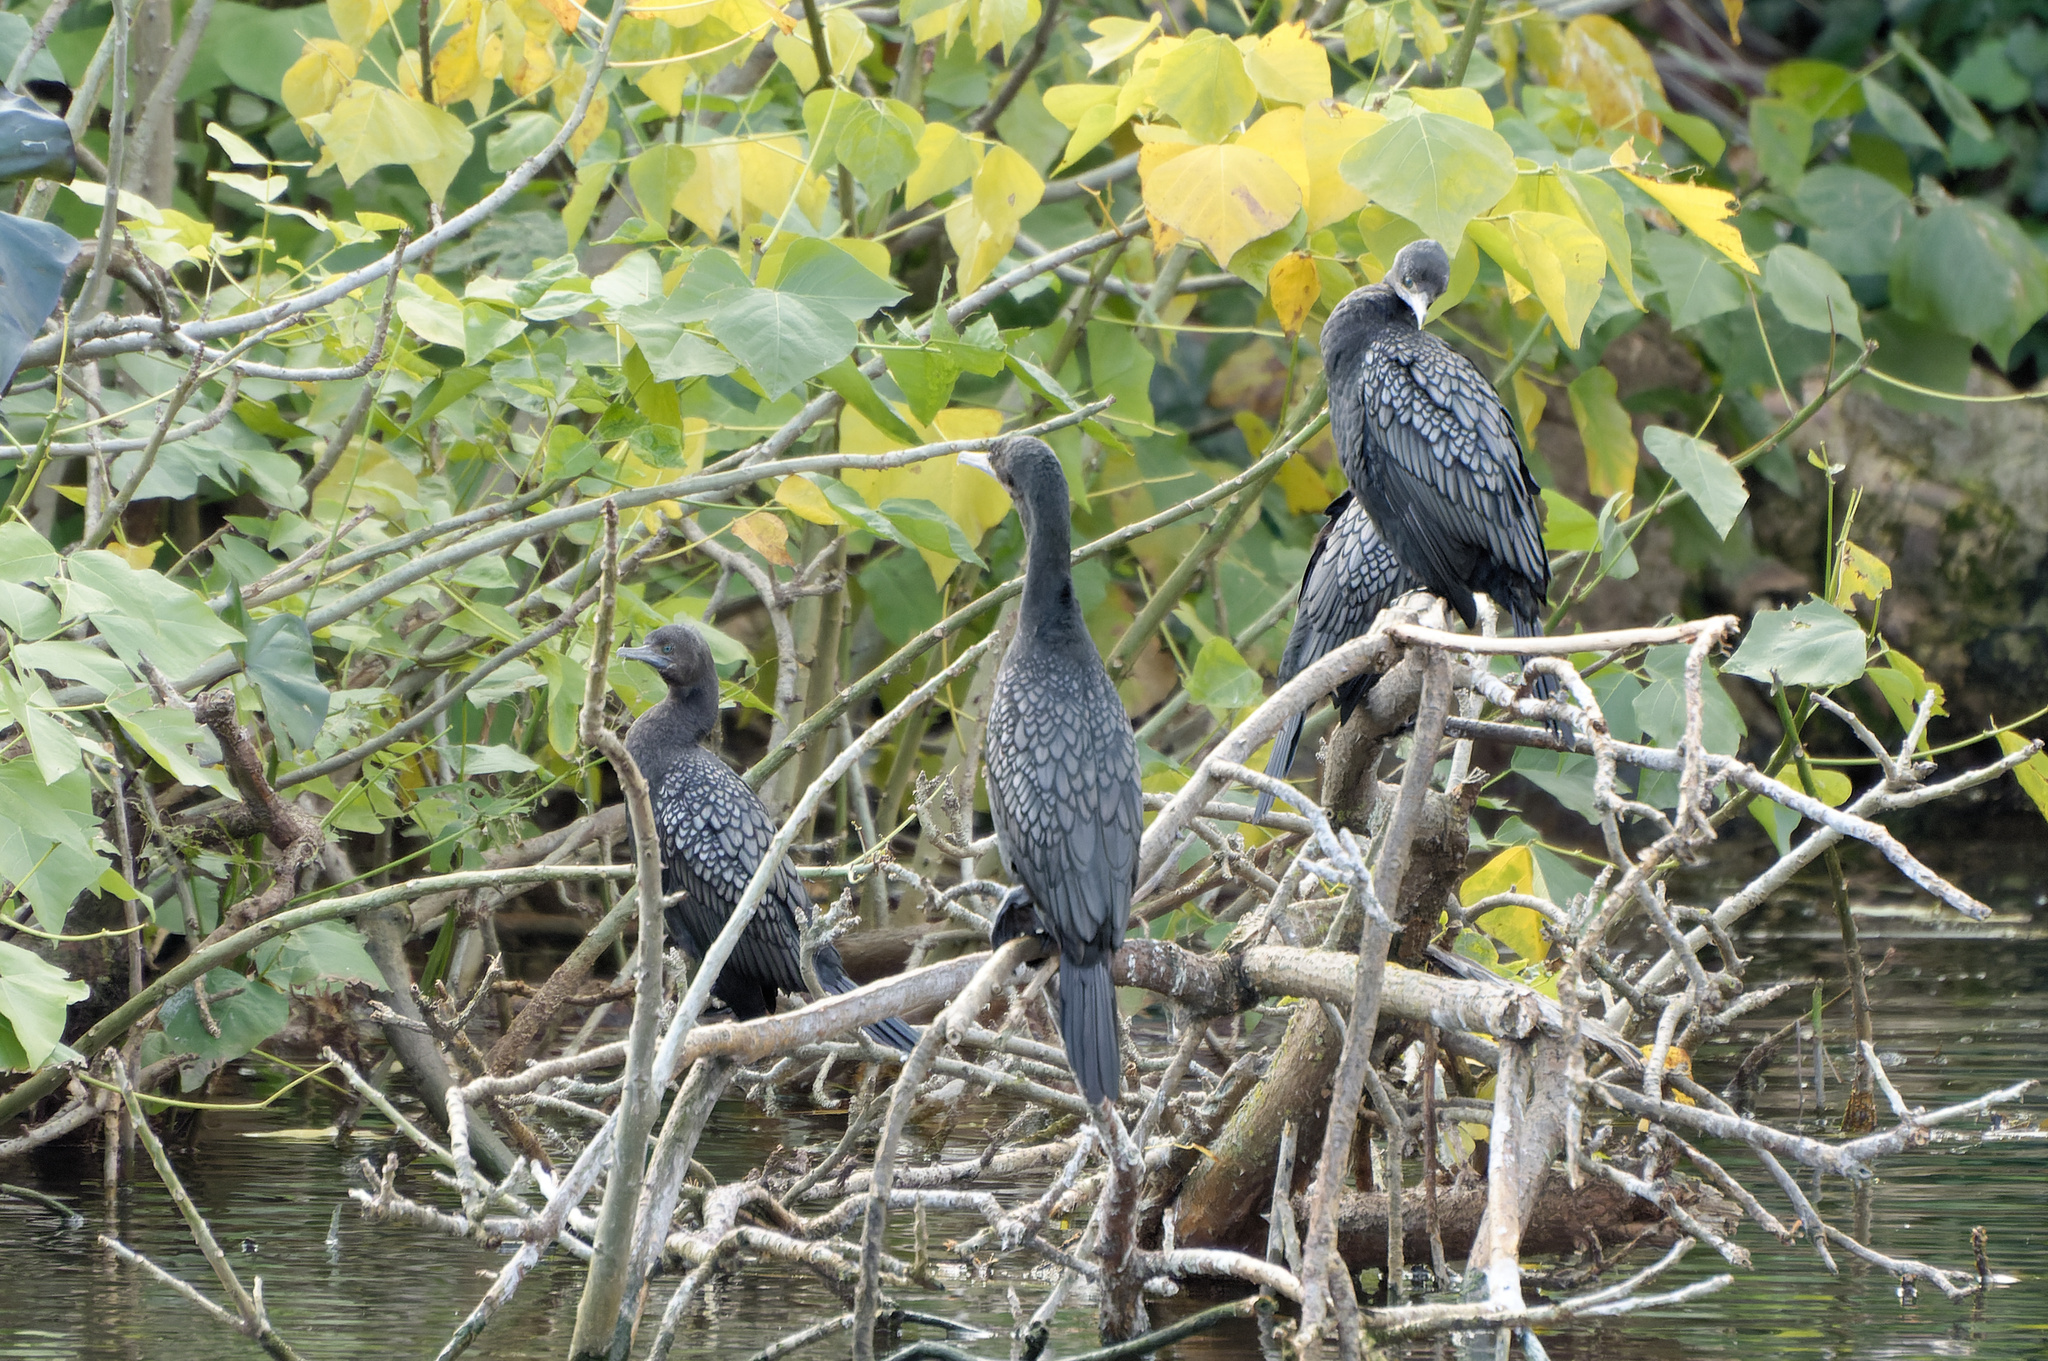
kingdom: Animalia
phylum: Chordata
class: Aves
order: Suliformes
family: Phalacrocoracidae
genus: Phalacrocorax
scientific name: Phalacrocorax sulcirostris
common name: Little black cormorant
